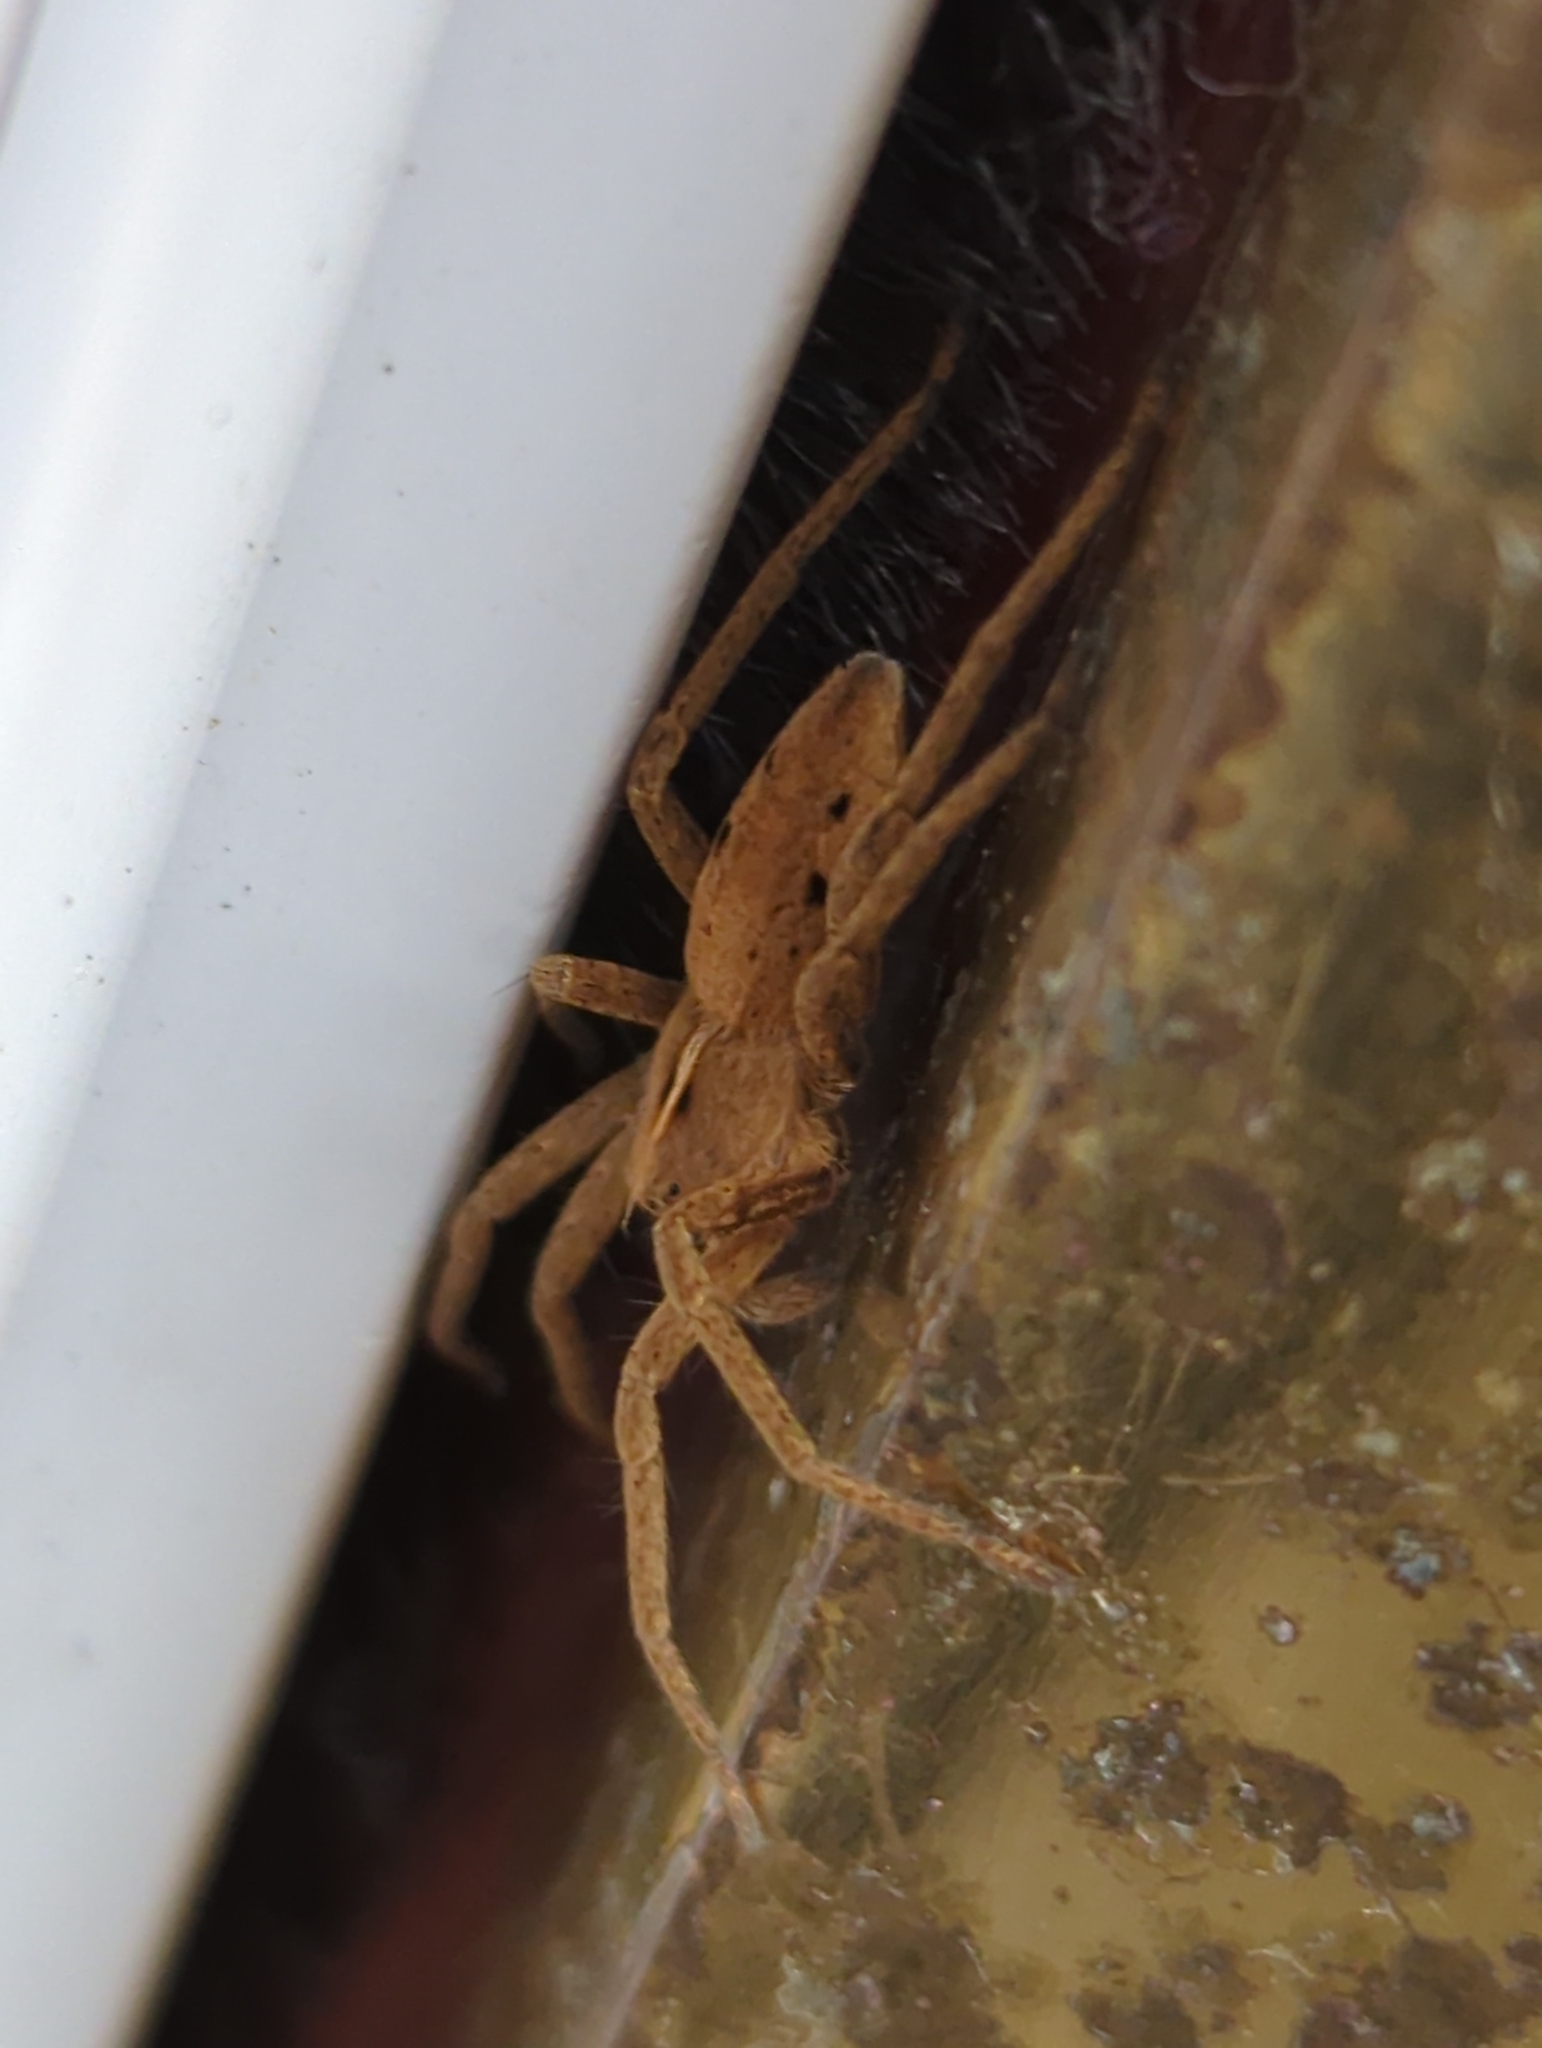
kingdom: Animalia
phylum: Arthropoda
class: Arachnida
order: Araneae
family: Pisauridae
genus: Pisaura
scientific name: Pisaura mirabilis
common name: Tent spider
